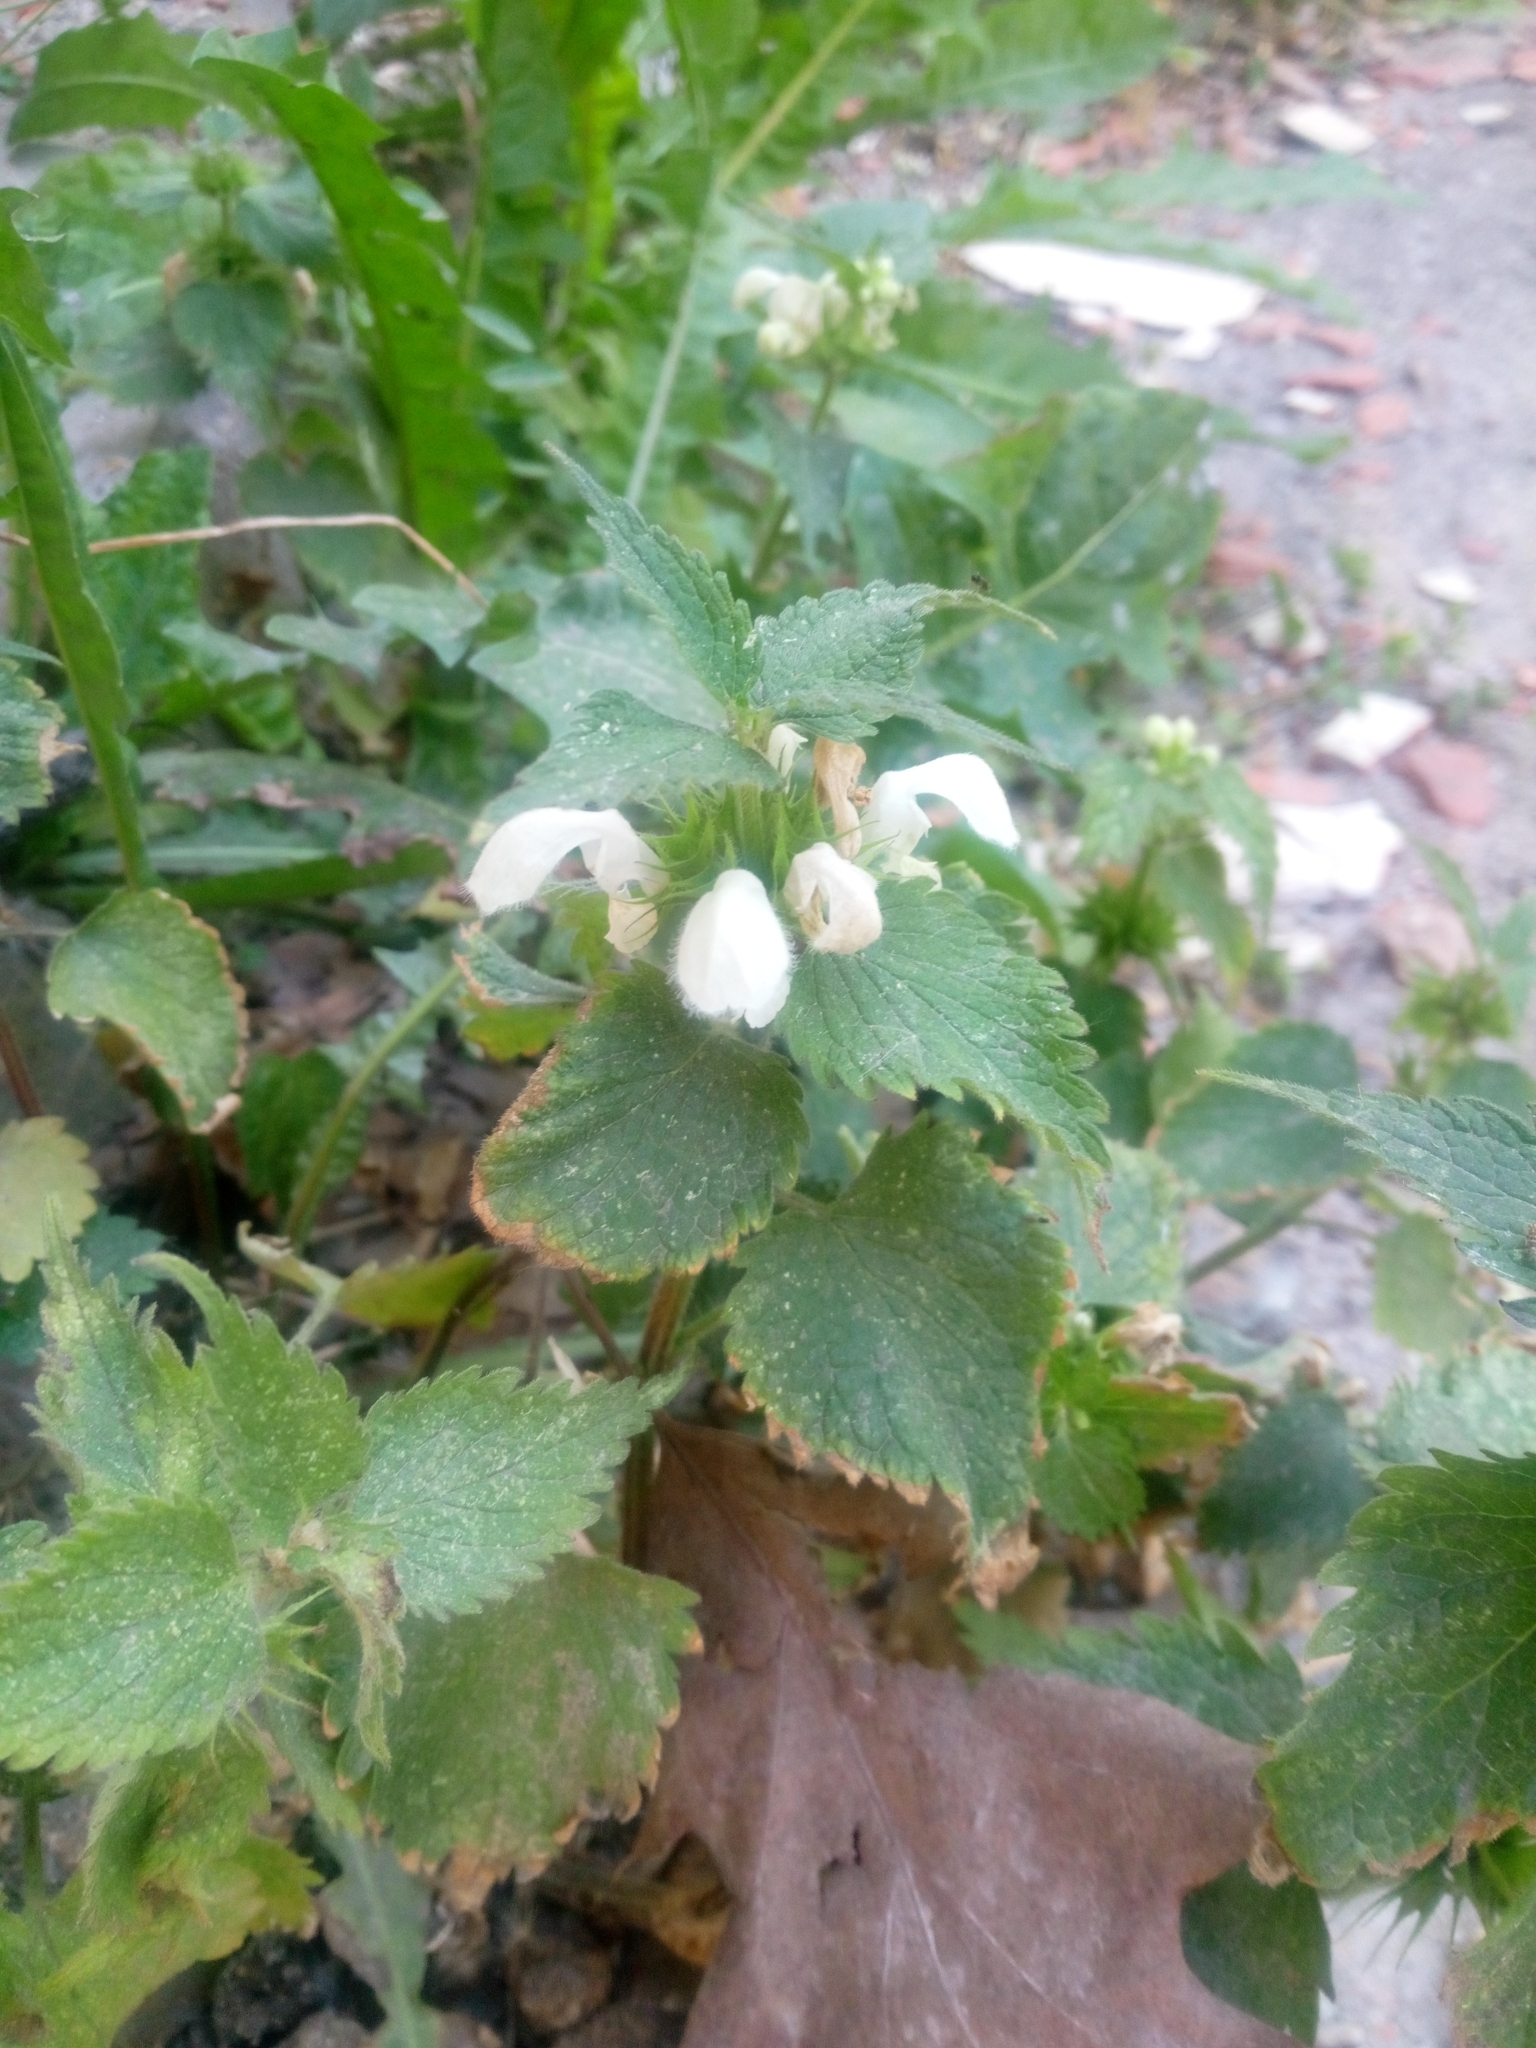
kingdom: Plantae
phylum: Tracheophyta
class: Magnoliopsida
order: Lamiales
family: Lamiaceae
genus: Lamium
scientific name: Lamium album
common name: White dead-nettle
